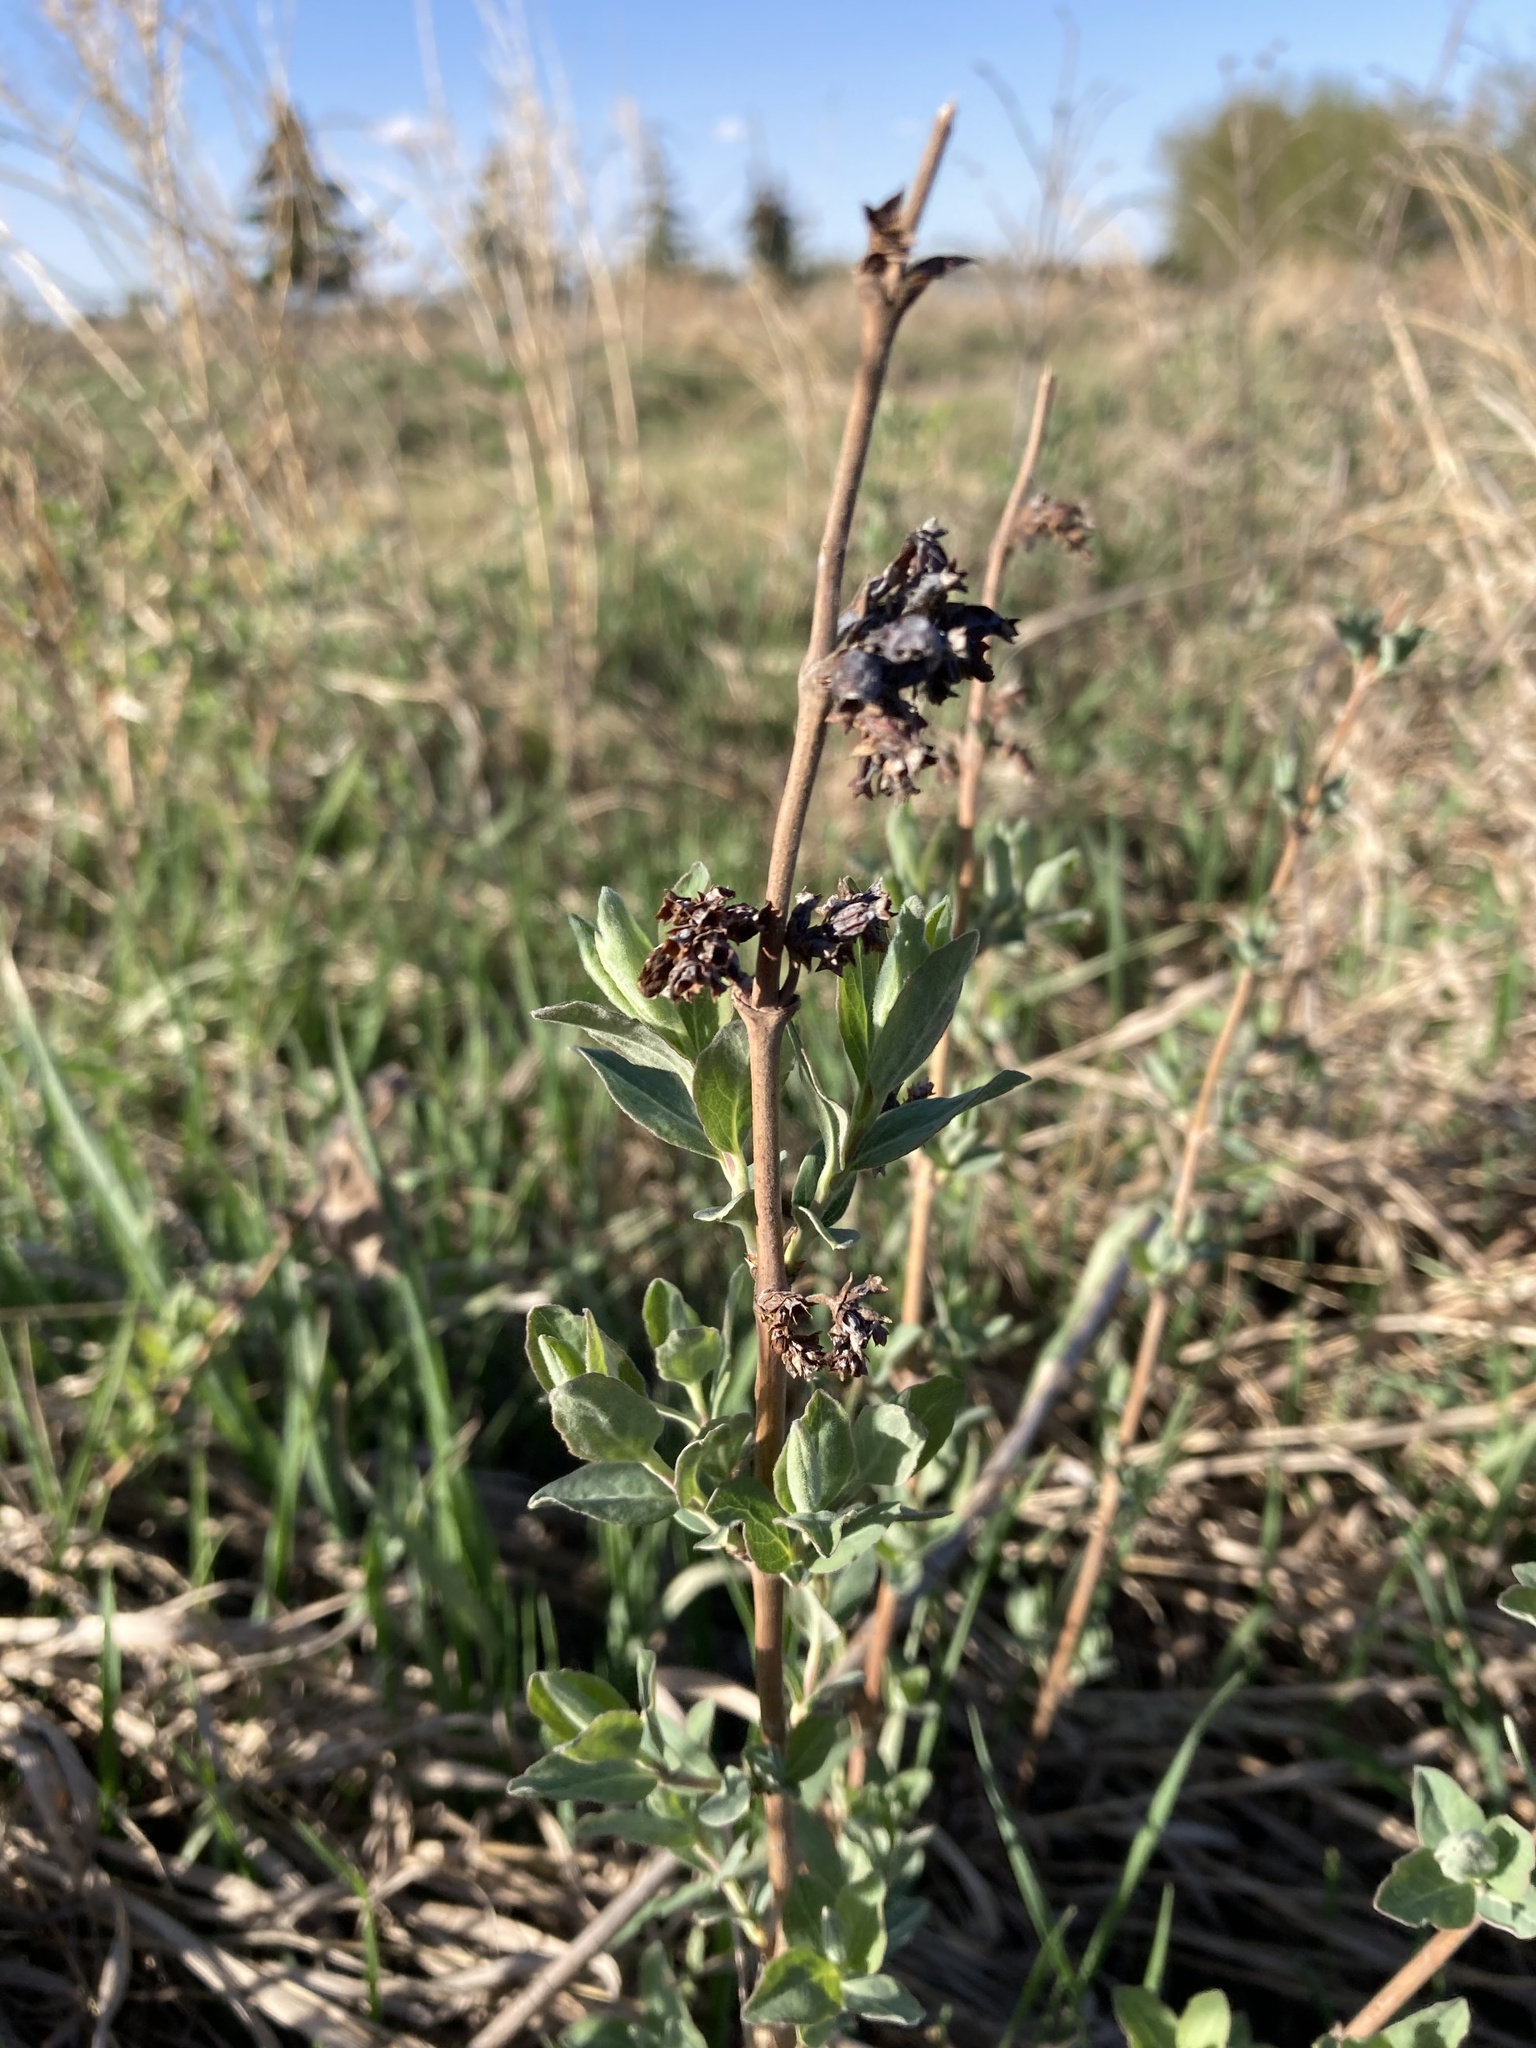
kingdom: Plantae
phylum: Tracheophyta
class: Magnoliopsida
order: Dipsacales
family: Caprifoliaceae
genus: Symphoricarpos
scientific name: Symphoricarpos occidentalis
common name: Wolfberry
